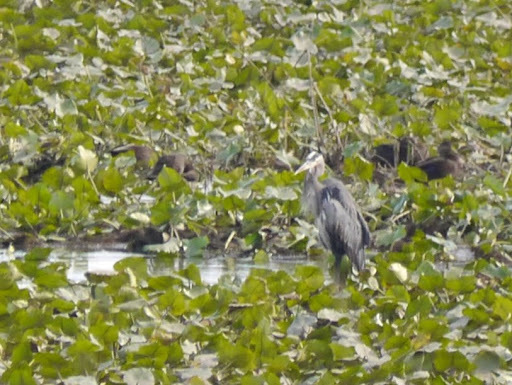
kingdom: Animalia
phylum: Chordata
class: Aves
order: Pelecaniformes
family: Ardeidae
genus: Ardea
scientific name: Ardea herodias
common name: Great blue heron
